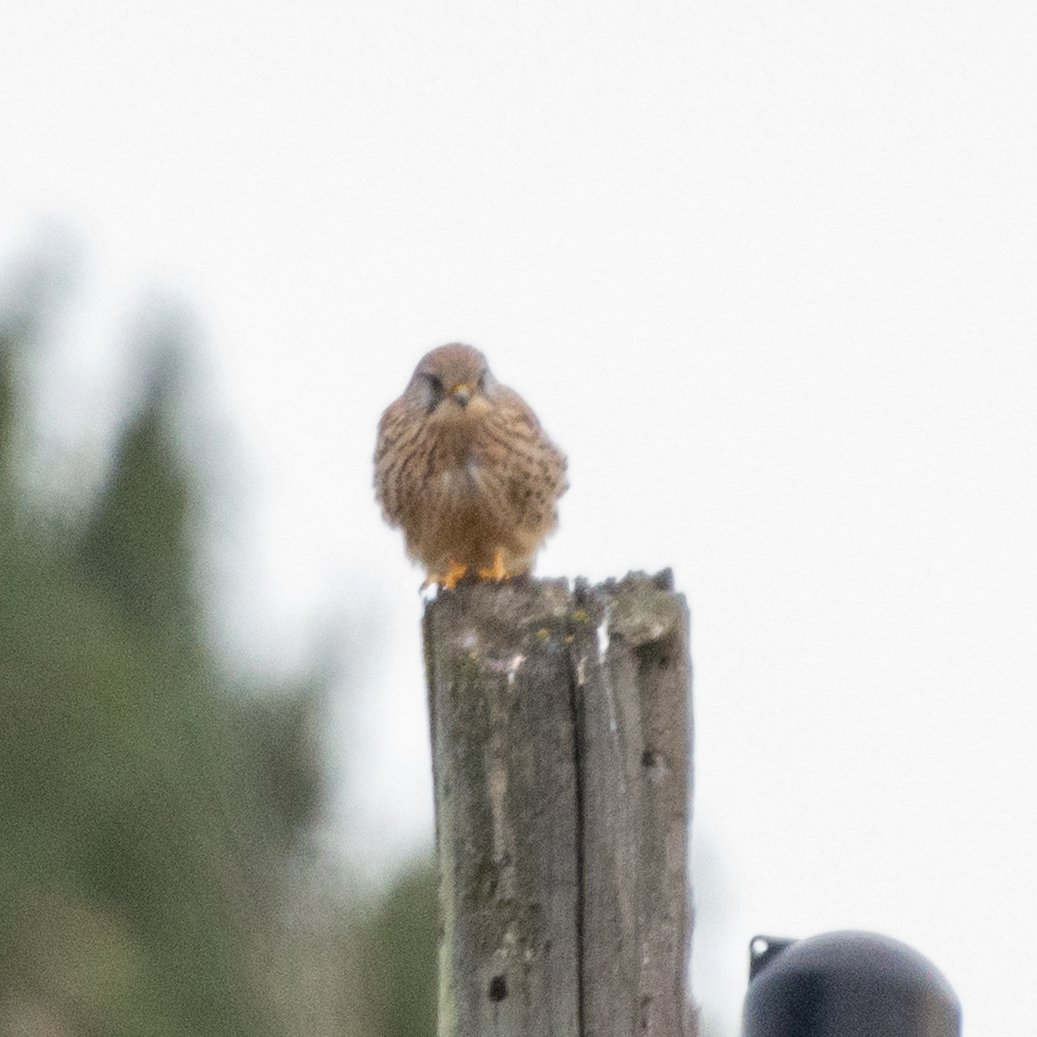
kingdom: Animalia
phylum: Chordata
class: Aves
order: Falconiformes
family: Falconidae
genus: Falco
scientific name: Falco tinnunculus
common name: Common kestrel
